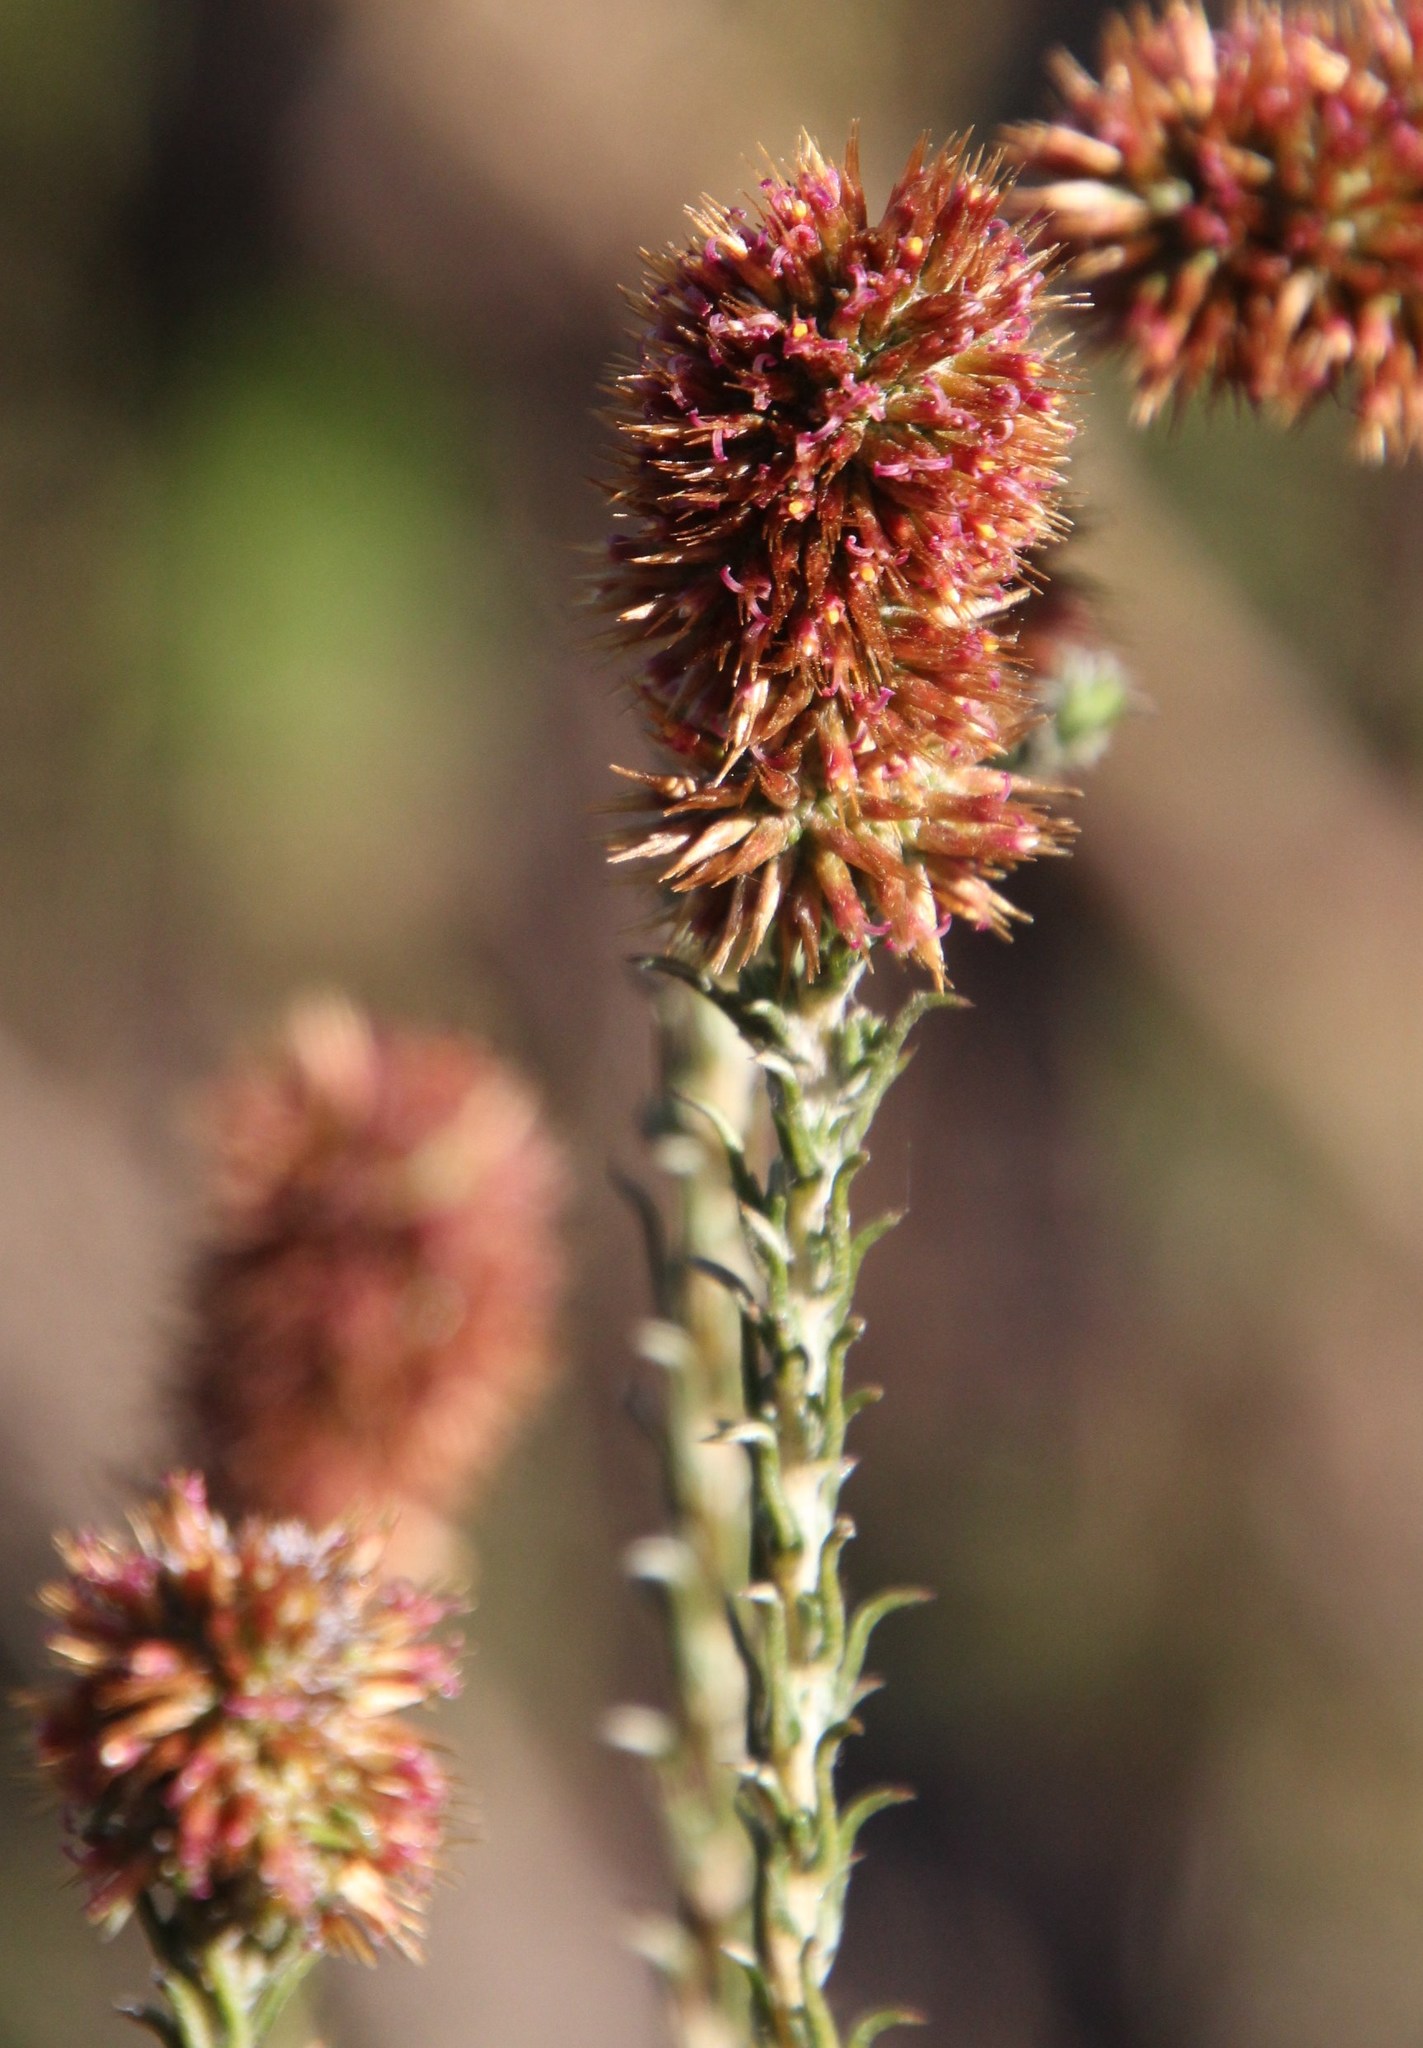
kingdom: Plantae
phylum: Tracheophyta
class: Magnoliopsida
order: Asterales
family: Asteraceae
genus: Seriphium
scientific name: Seriphium cinereum
